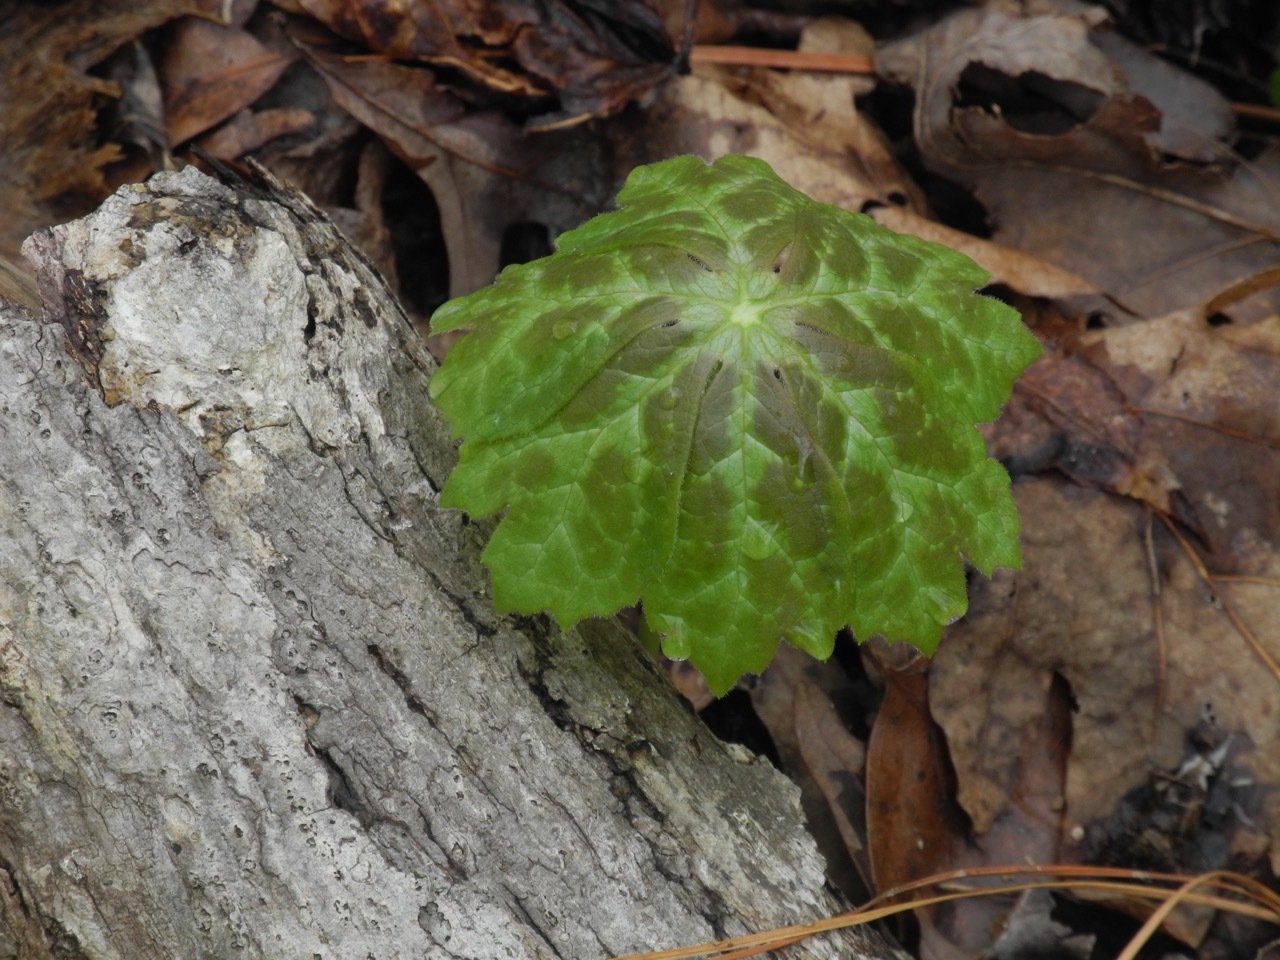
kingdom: Plantae
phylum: Tracheophyta
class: Magnoliopsida
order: Ranunculales
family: Berberidaceae
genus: Podophyllum
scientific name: Podophyllum peltatum
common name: Wild mandrake
